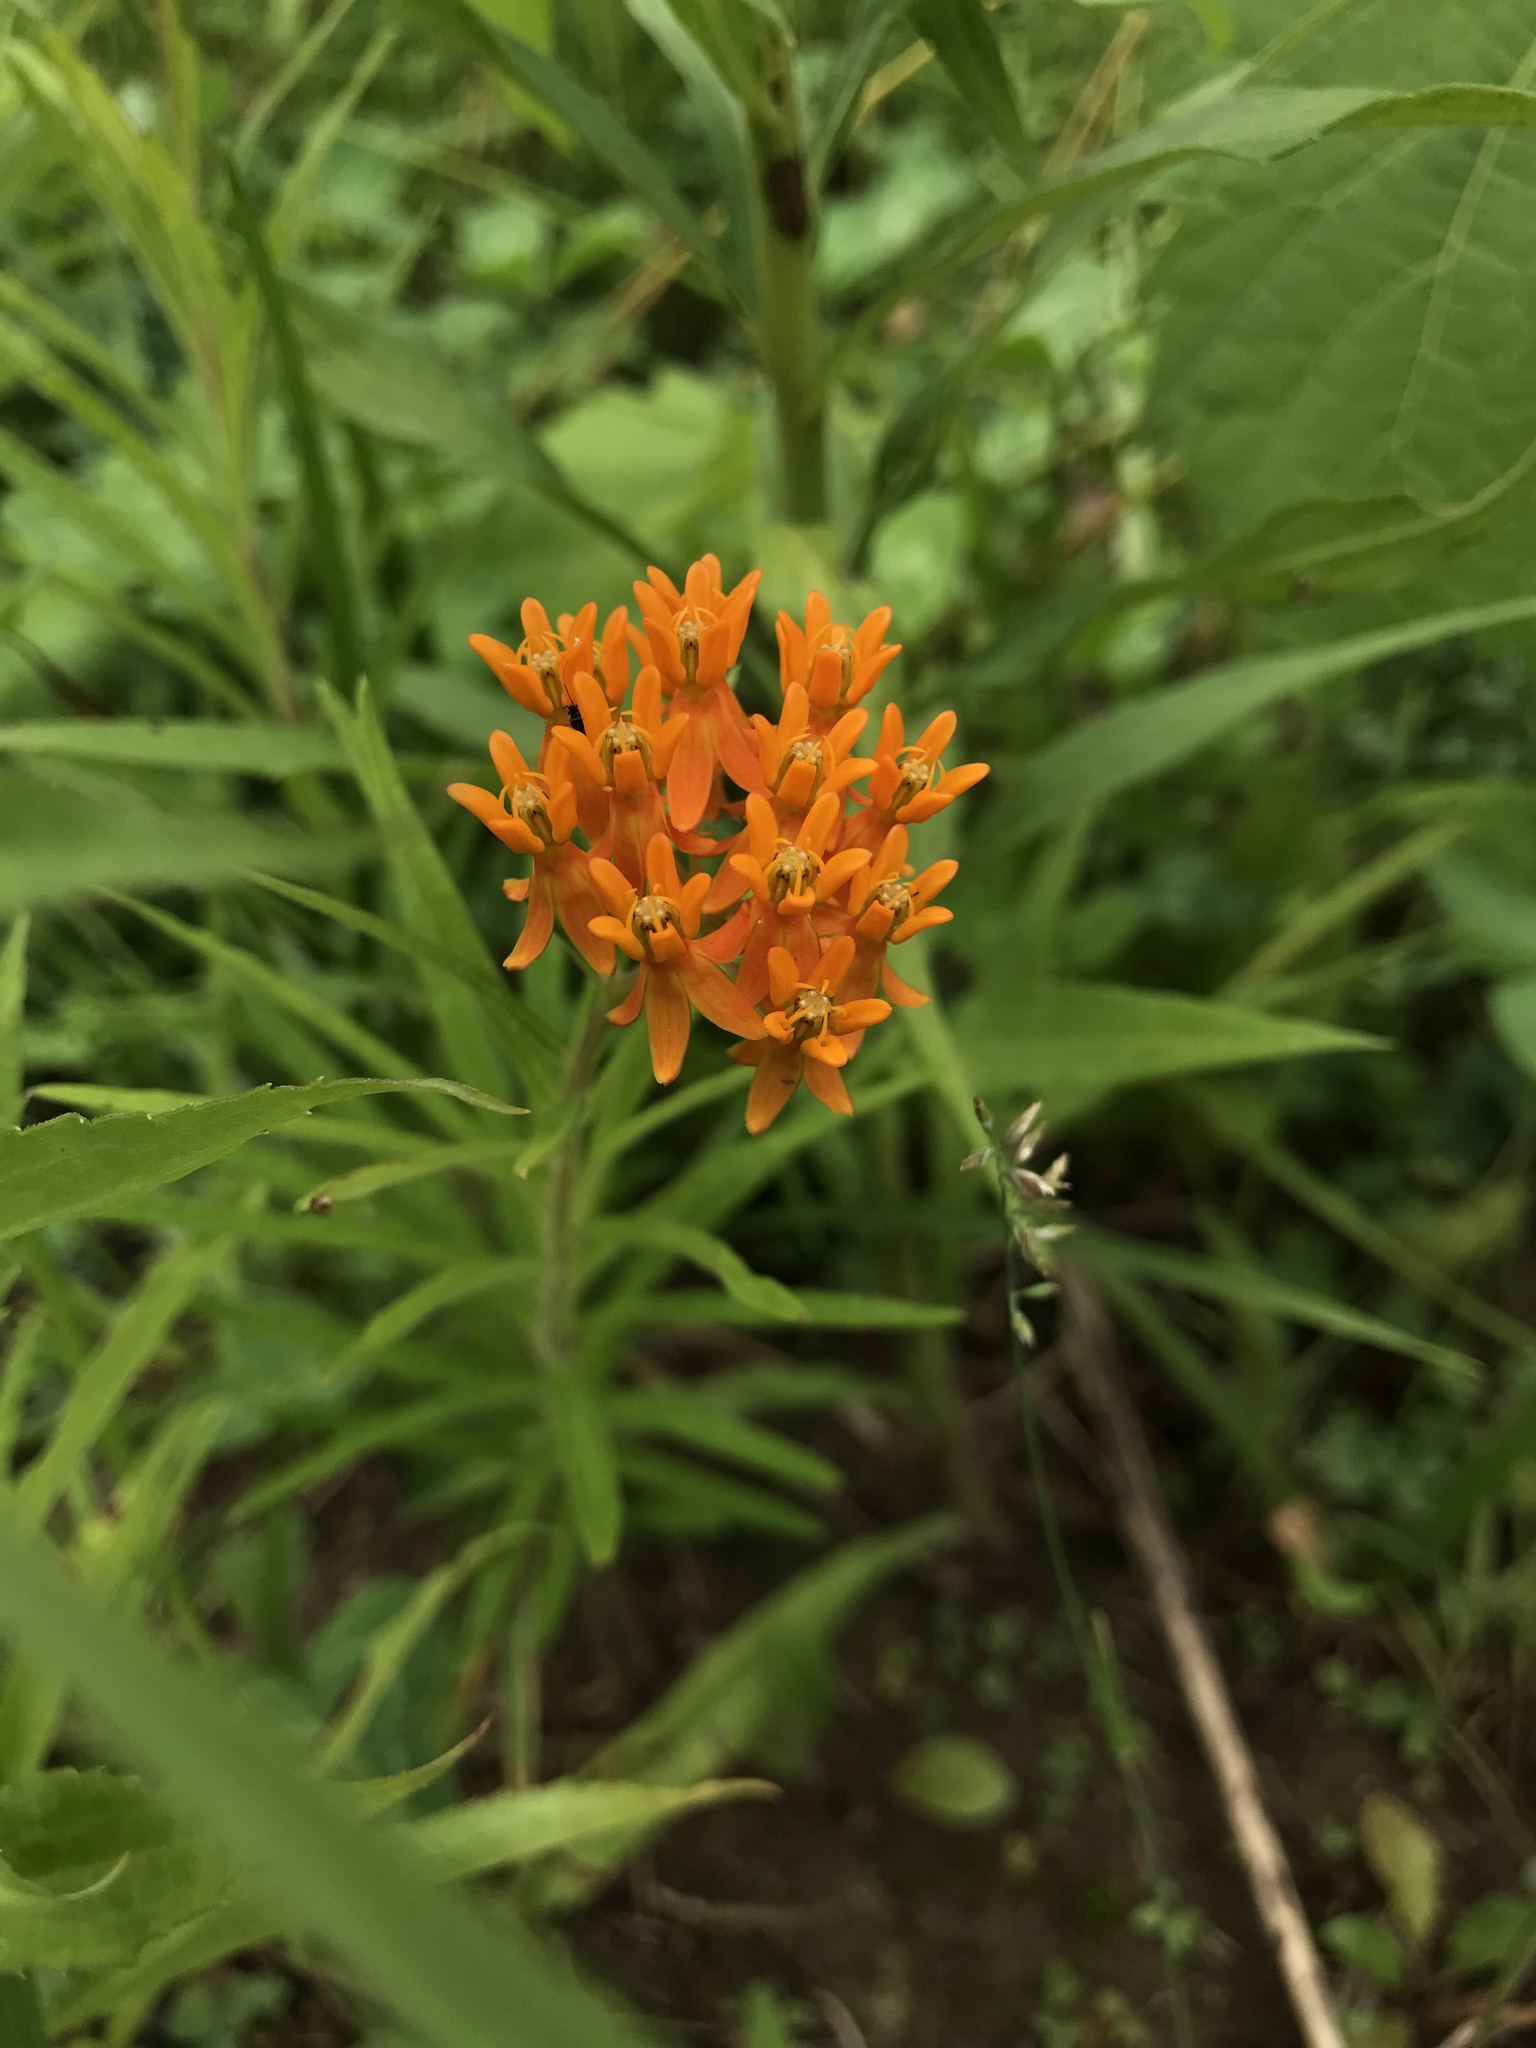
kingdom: Plantae
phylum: Tracheophyta
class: Magnoliopsida
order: Gentianales
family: Apocynaceae
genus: Asclepias
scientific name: Asclepias tuberosa
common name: Butterfly milkweed
